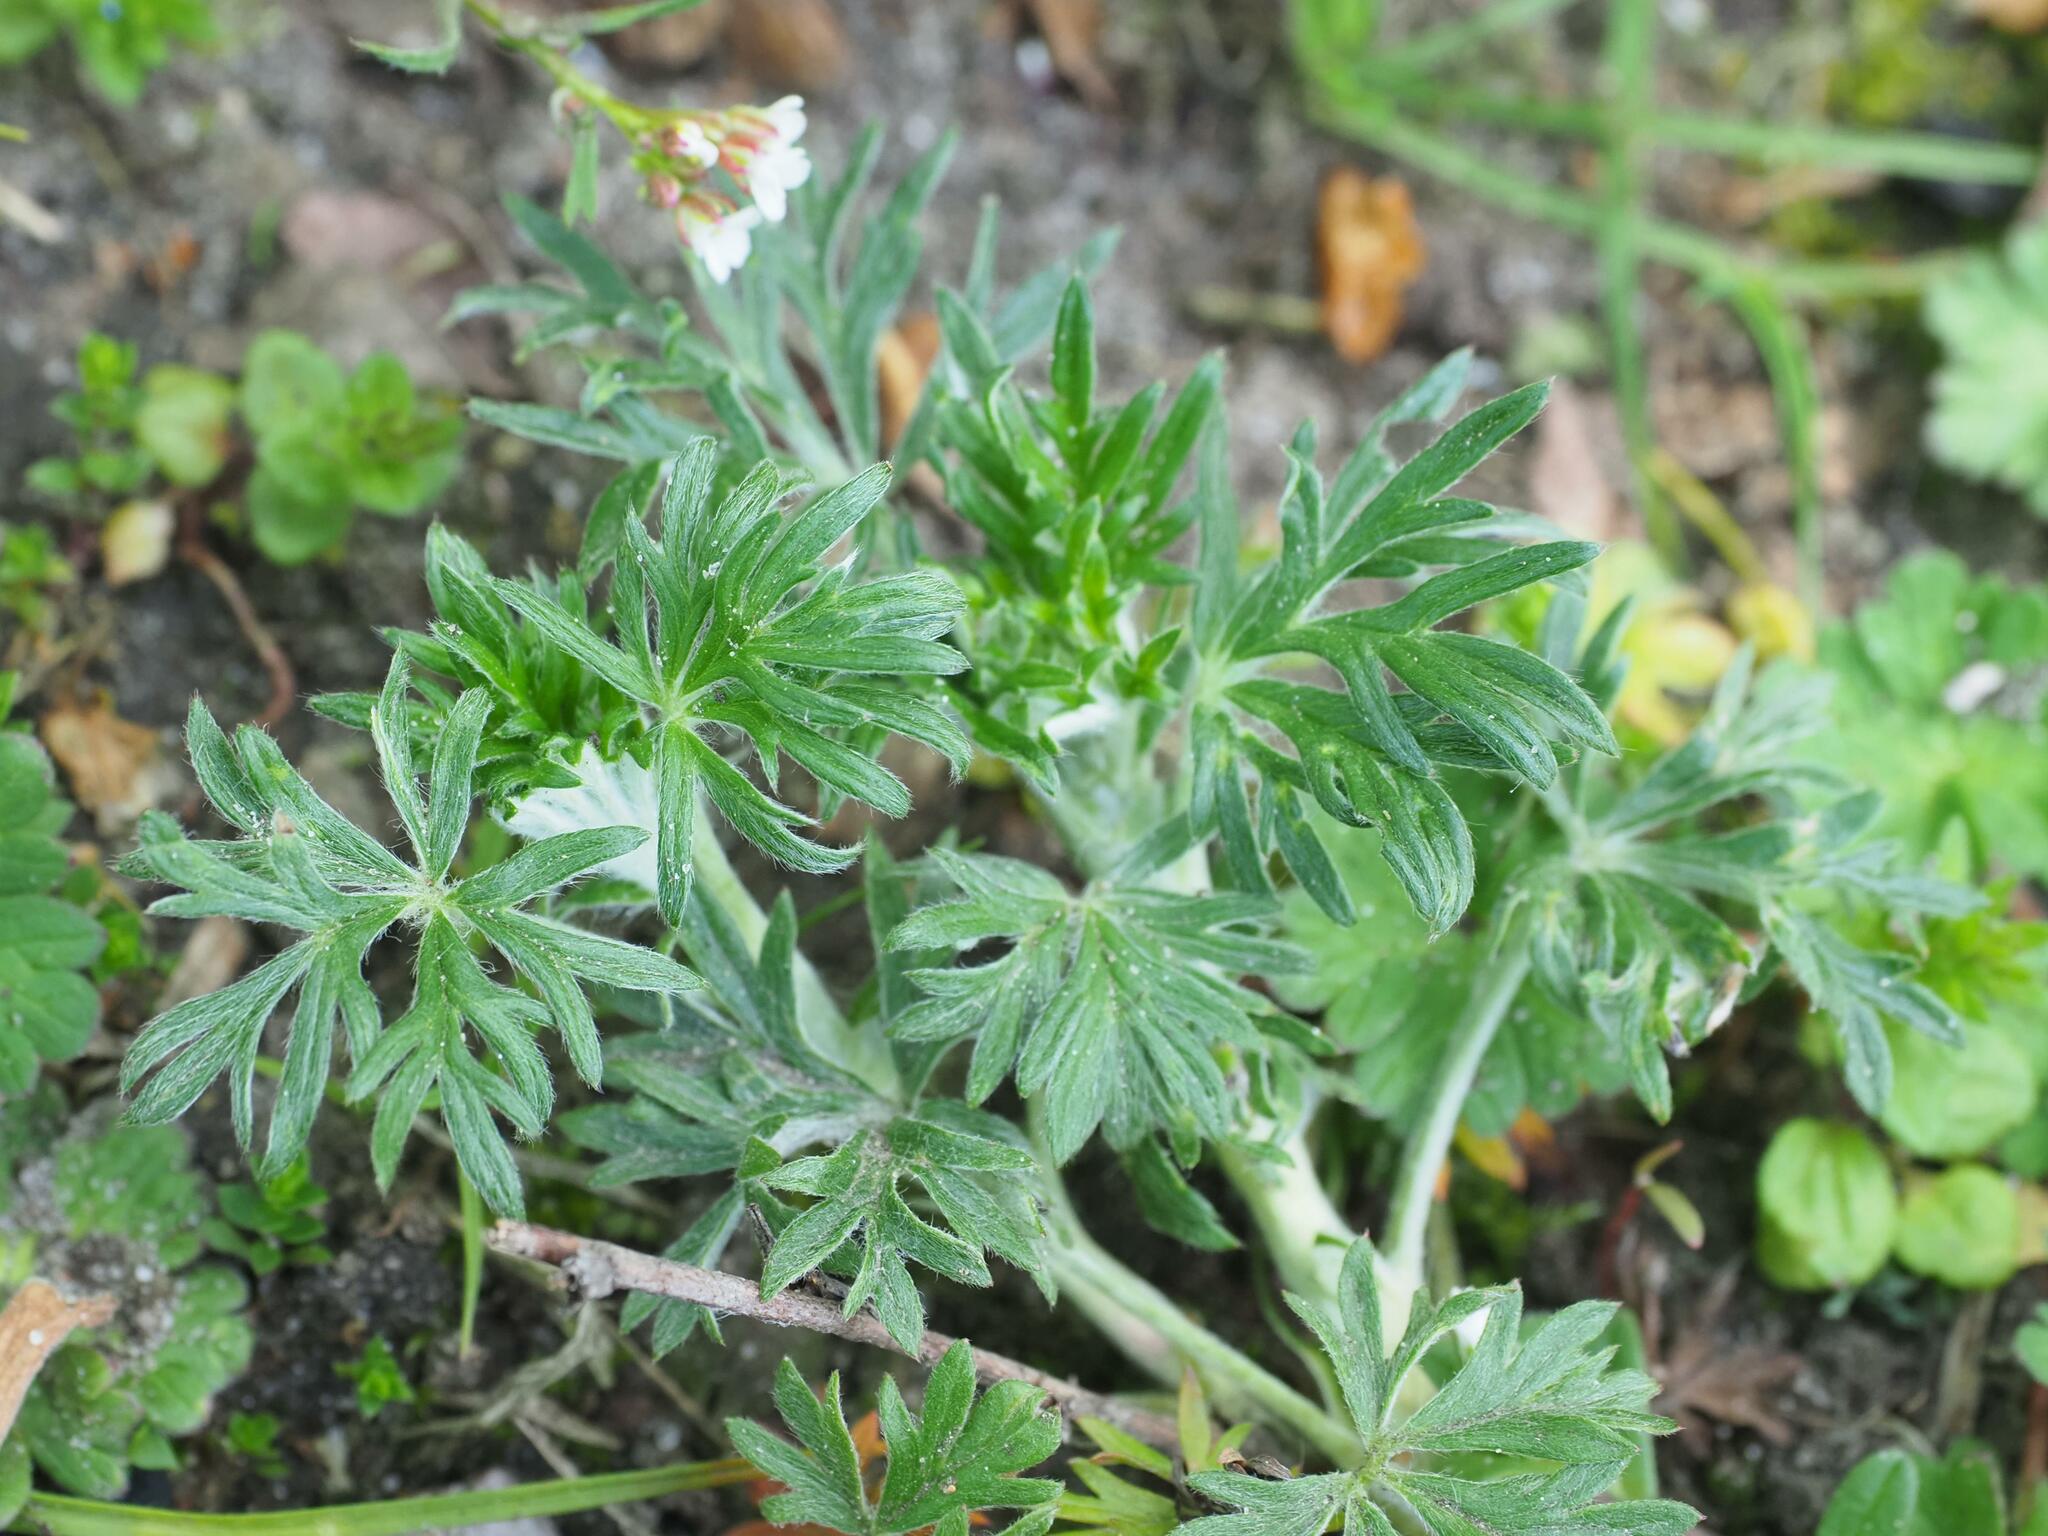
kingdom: Plantae
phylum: Tracheophyta
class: Magnoliopsida
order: Rosales
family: Rosaceae
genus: Potentilla
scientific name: Potentilla argentea
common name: Hoary cinquefoil
